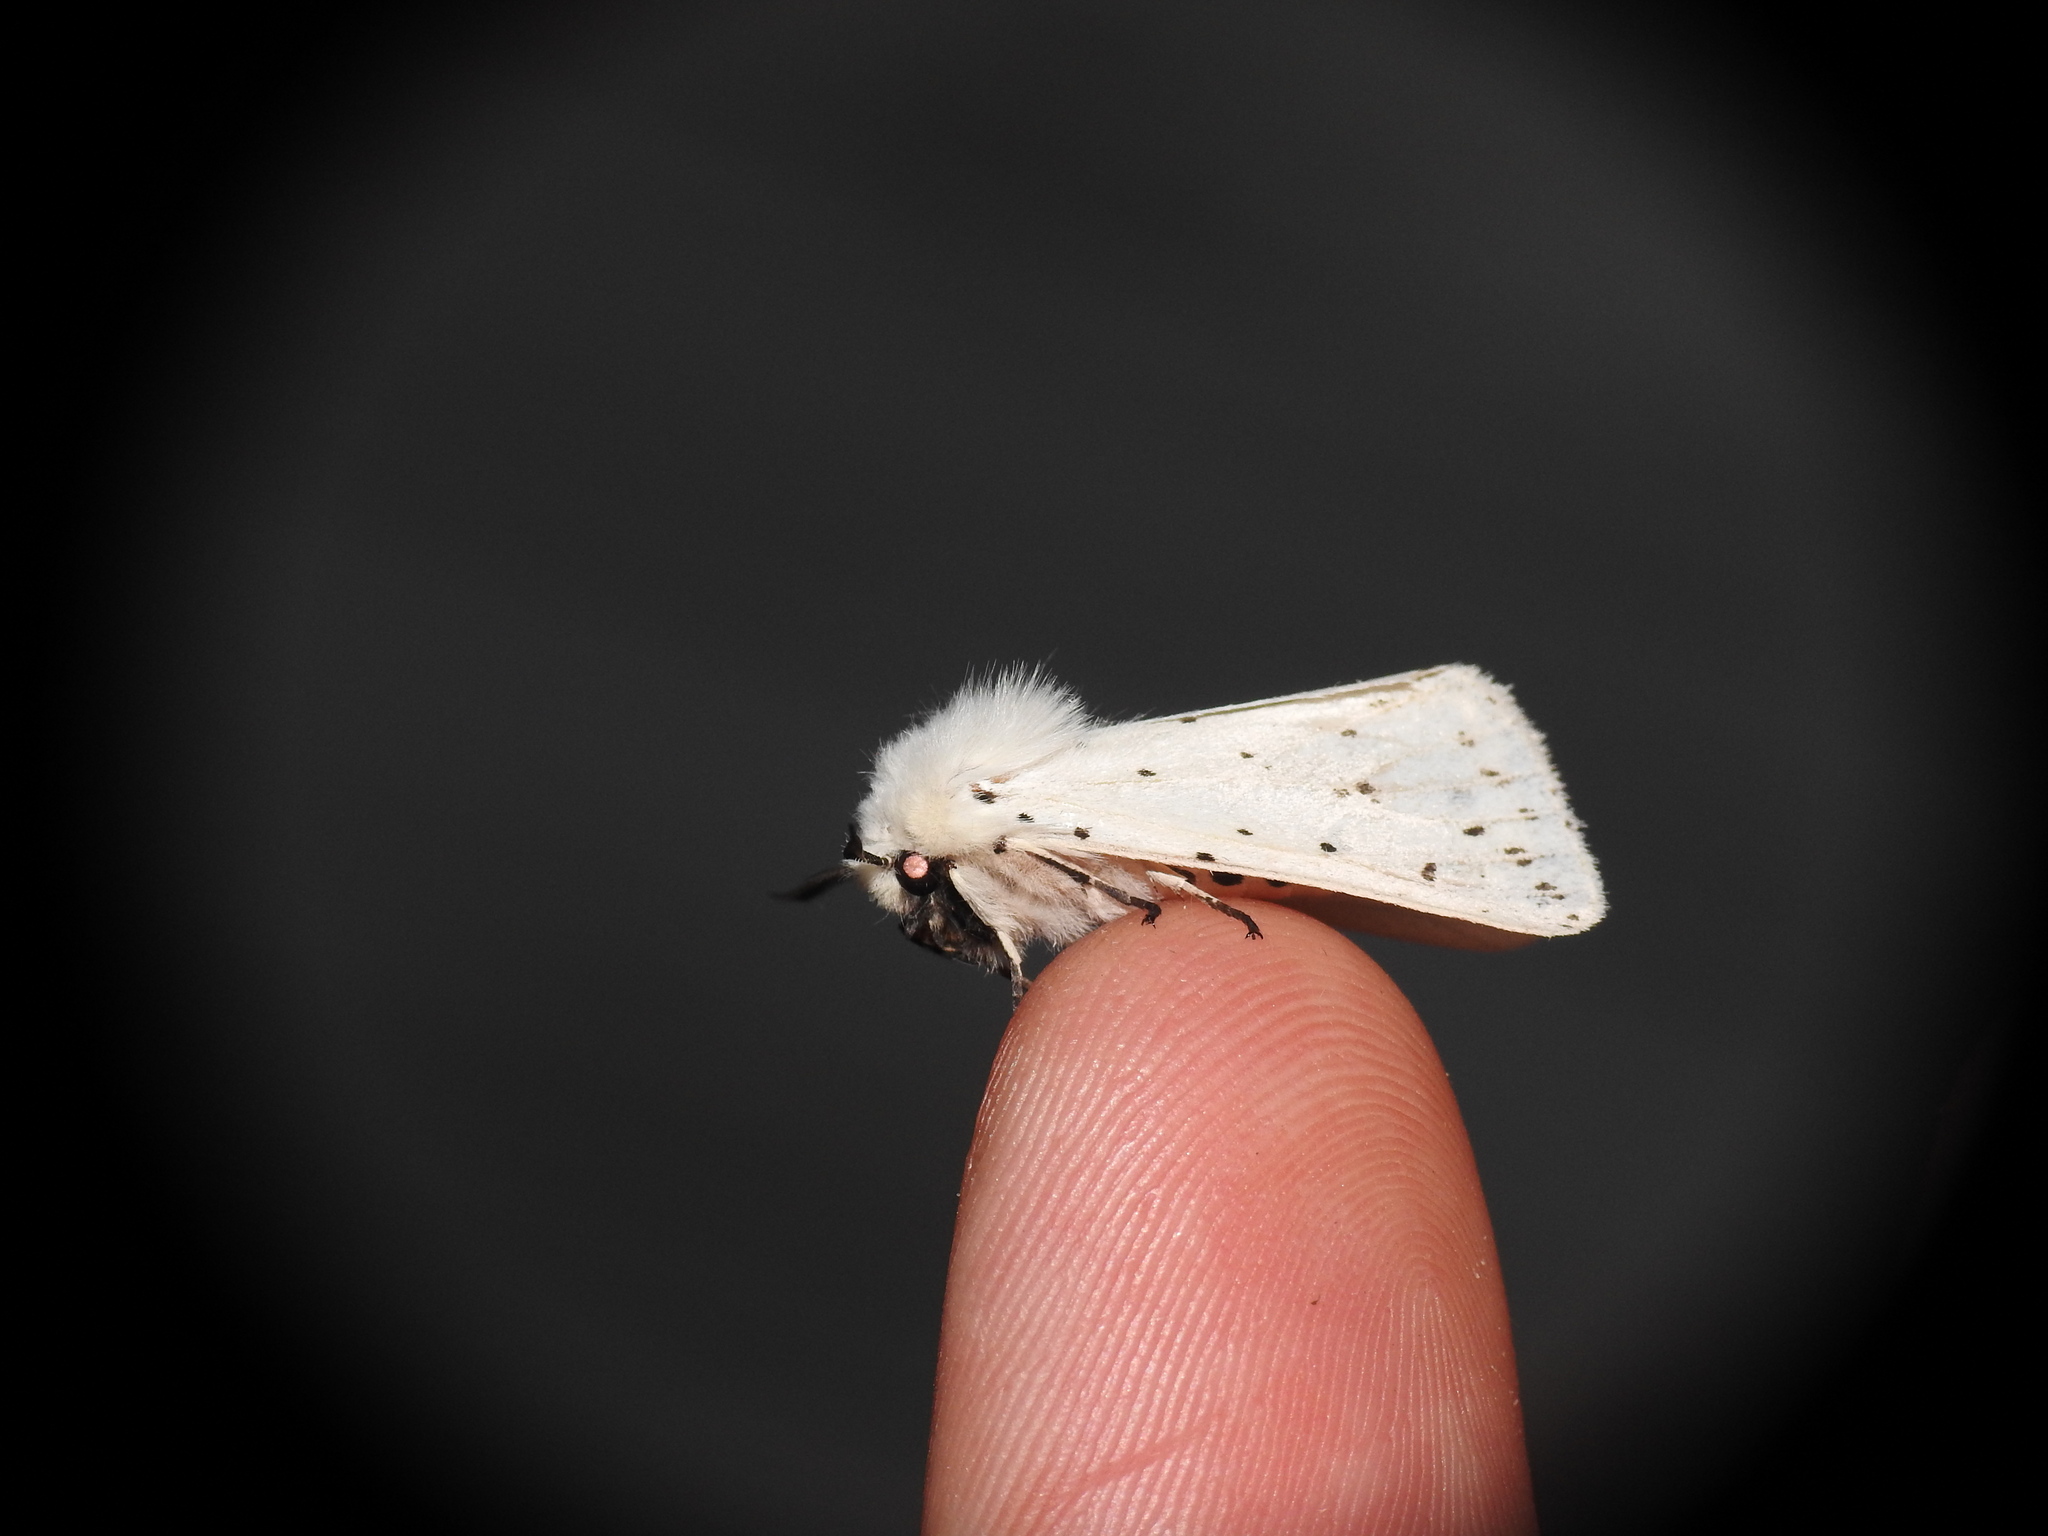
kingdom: Animalia
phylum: Arthropoda
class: Insecta
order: Lepidoptera
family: Erebidae
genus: Spilosoma
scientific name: Spilosoma lubricipeda
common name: White ermine
